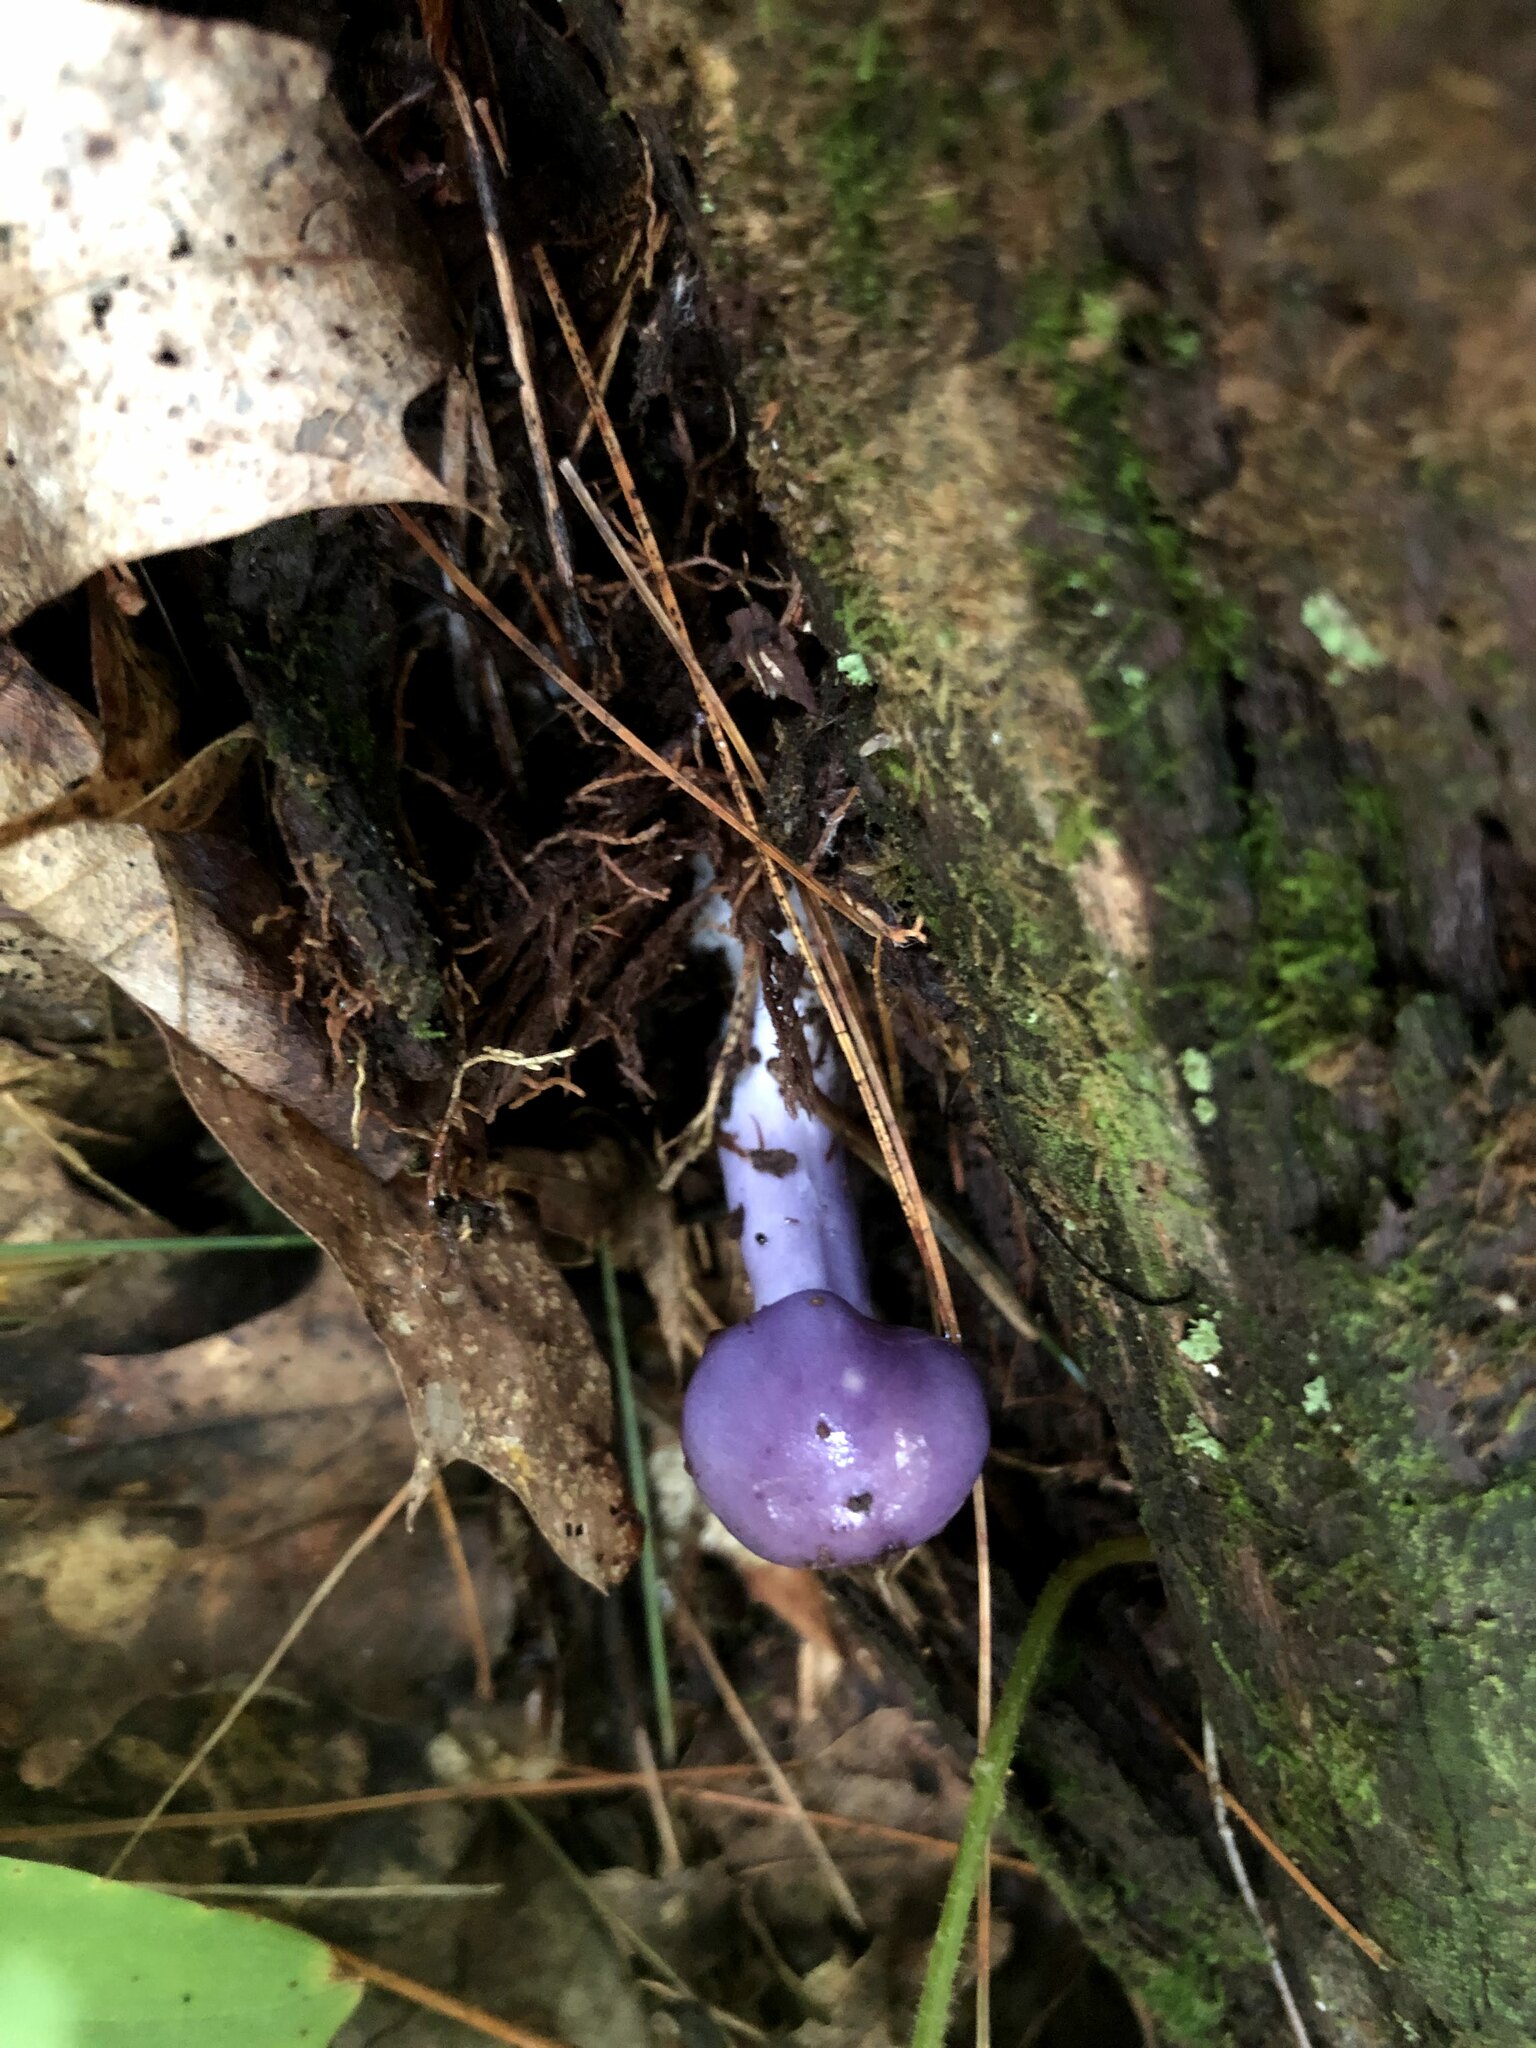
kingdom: Fungi
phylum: Basidiomycota
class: Agaricomycetes
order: Agaricales
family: Cortinariaceae
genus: Cortinarius
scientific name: Cortinarius iodes
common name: Viscid violet cort
